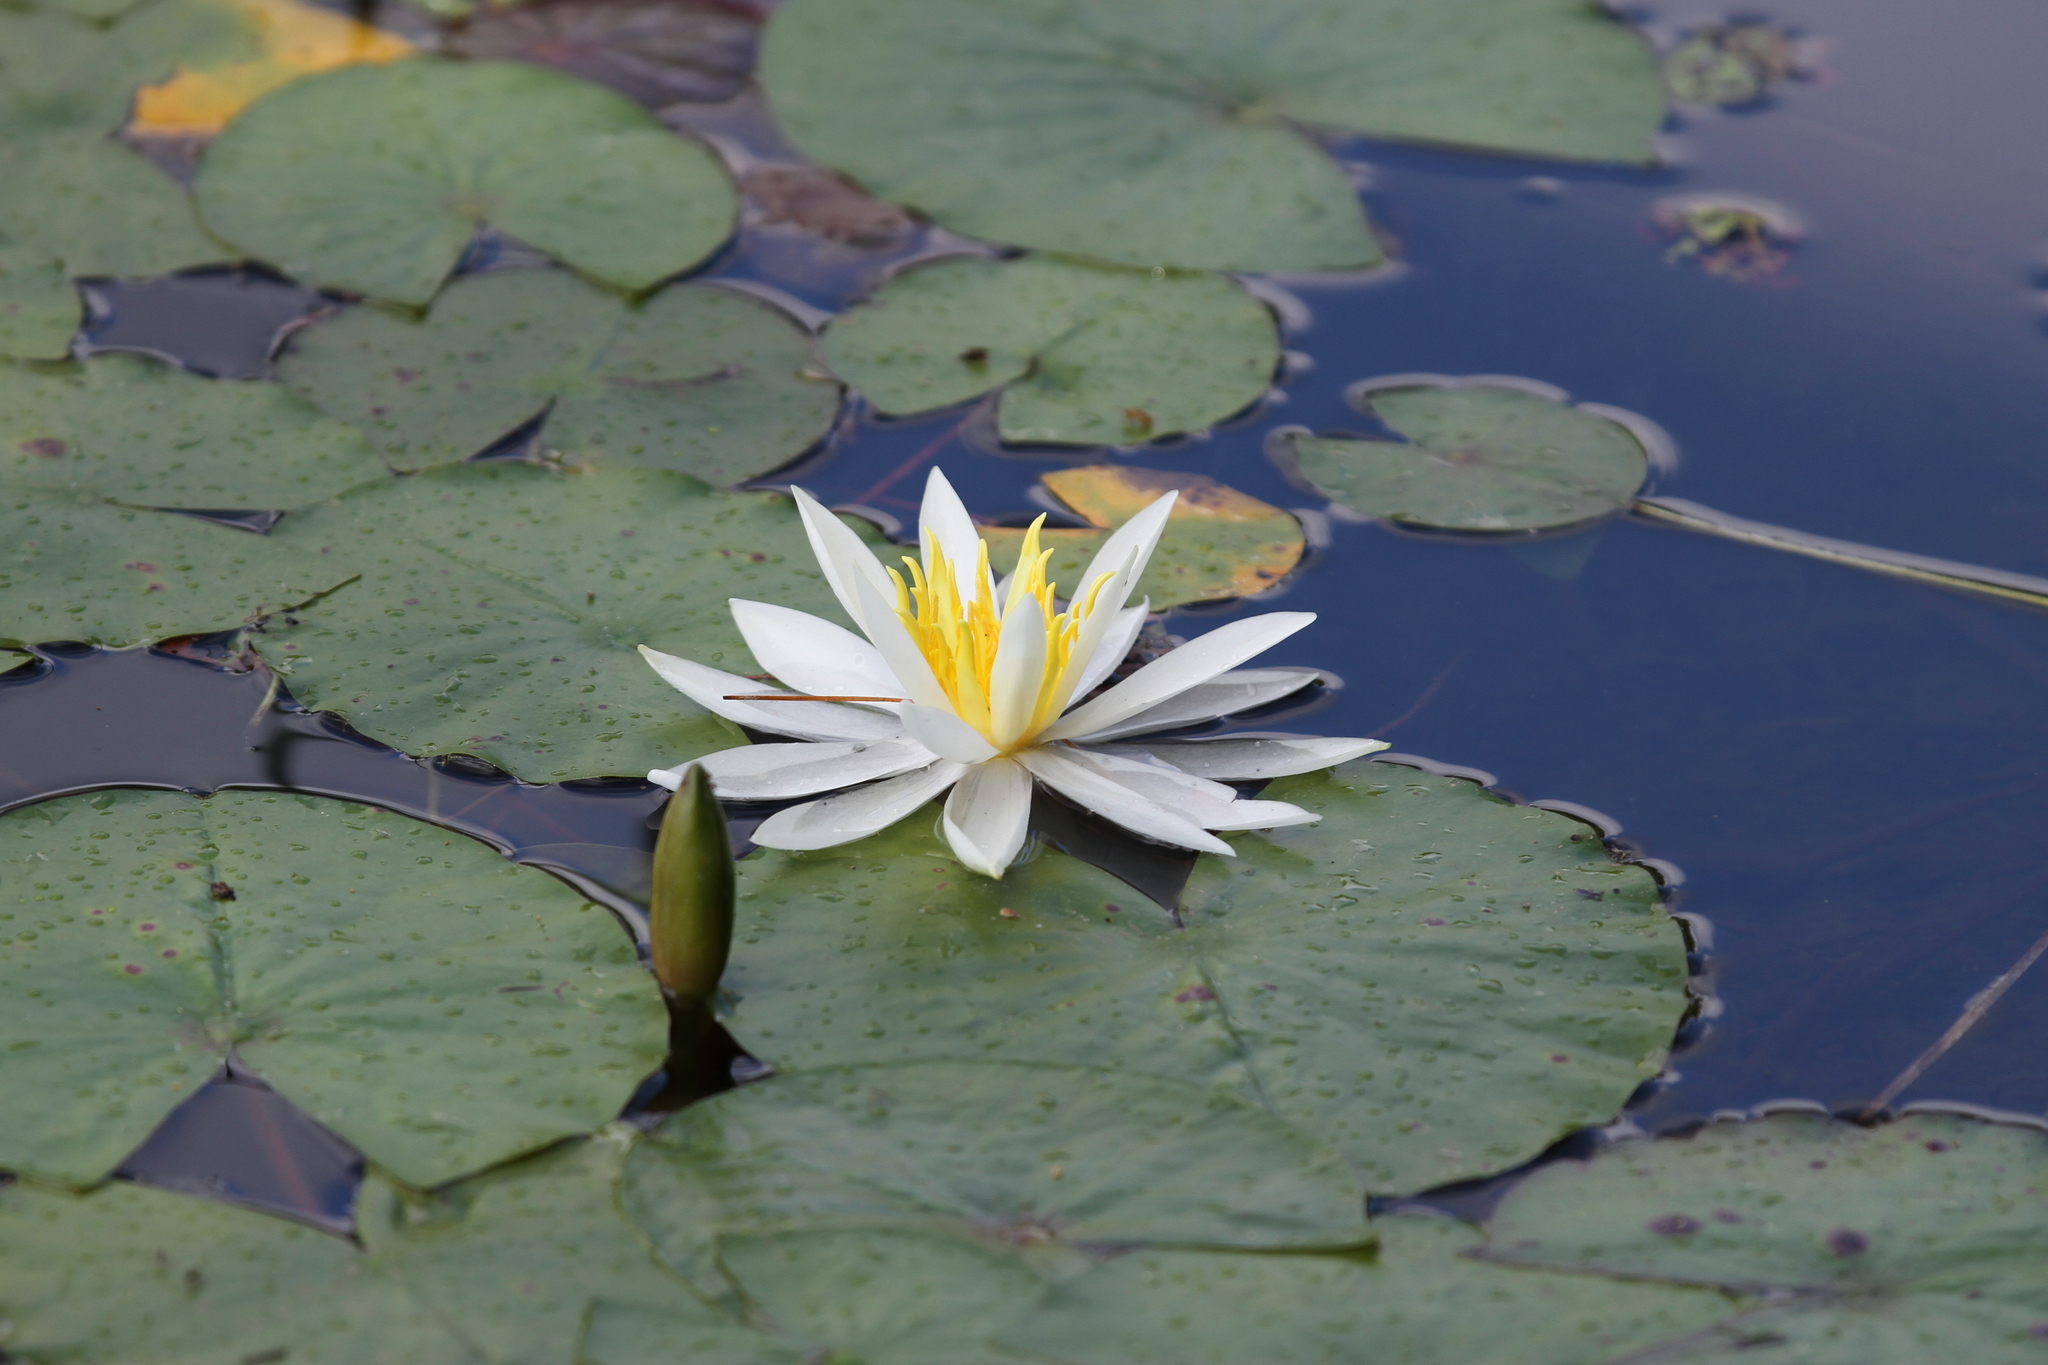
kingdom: Plantae
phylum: Tracheophyta
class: Magnoliopsida
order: Nymphaeales
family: Nymphaeaceae
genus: Nymphaea
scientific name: Nymphaea odorata
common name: Fragrant water-lily
